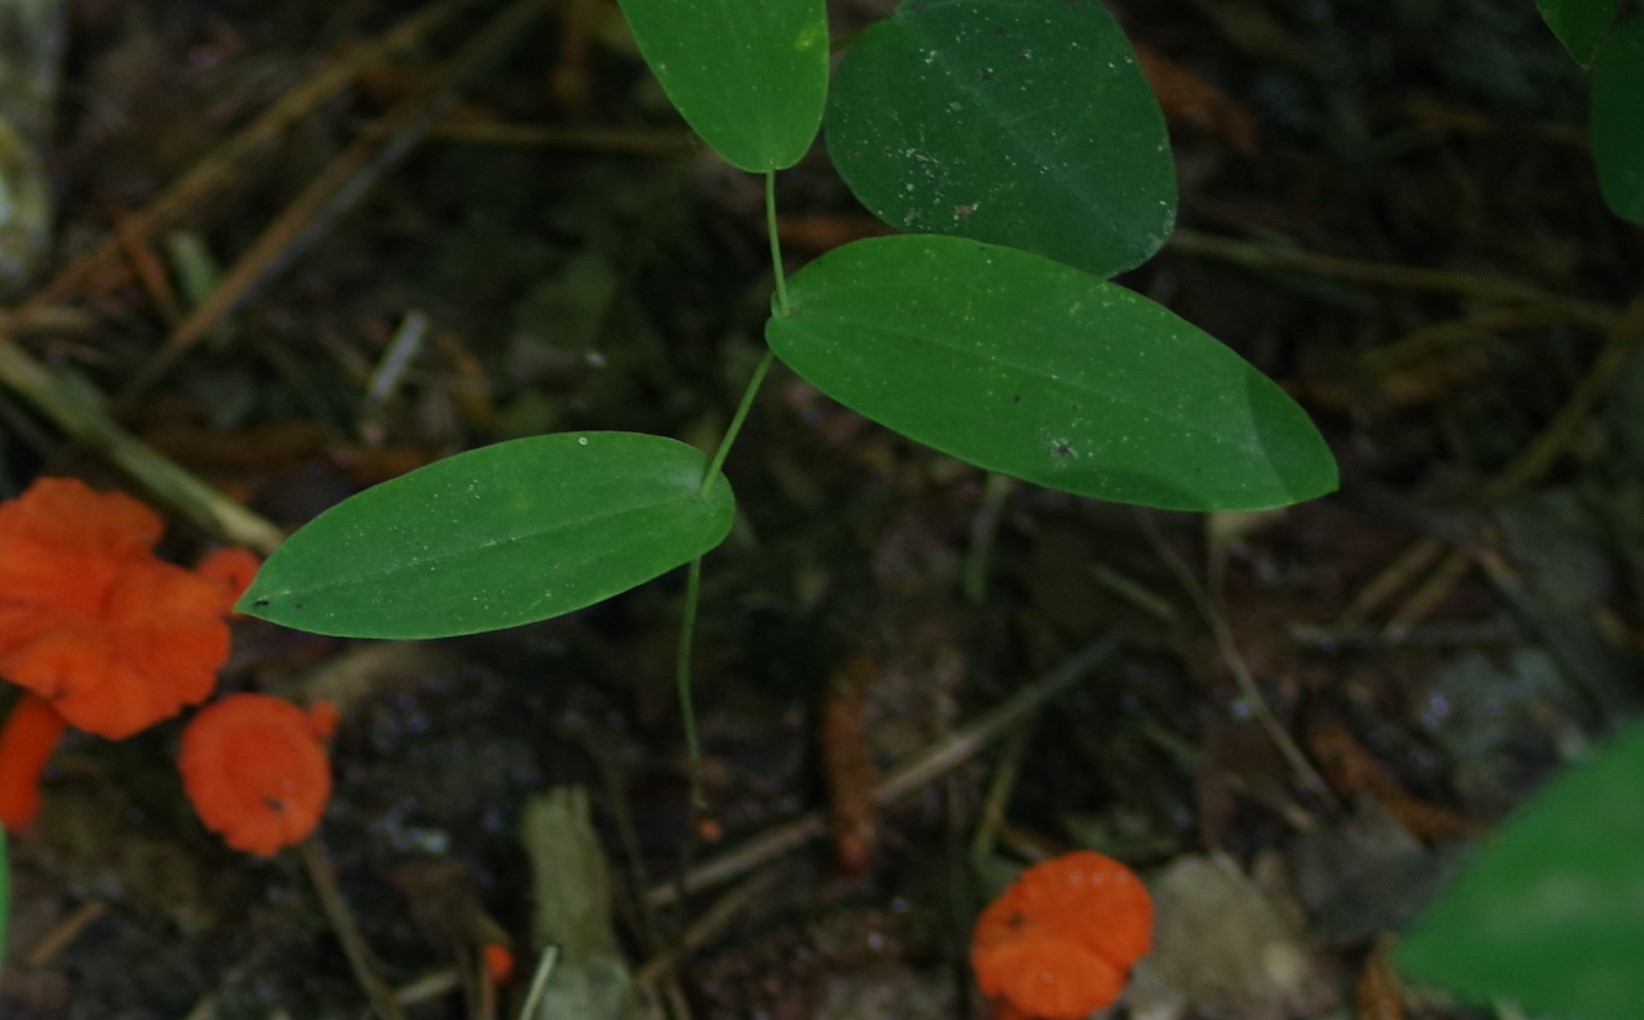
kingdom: Plantae
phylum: Tracheophyta
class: Liliopsida
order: Liliales
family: Colchicaceae
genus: Uvularia
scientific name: Uvularia perfoliata
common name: Perfoliate bellwort
